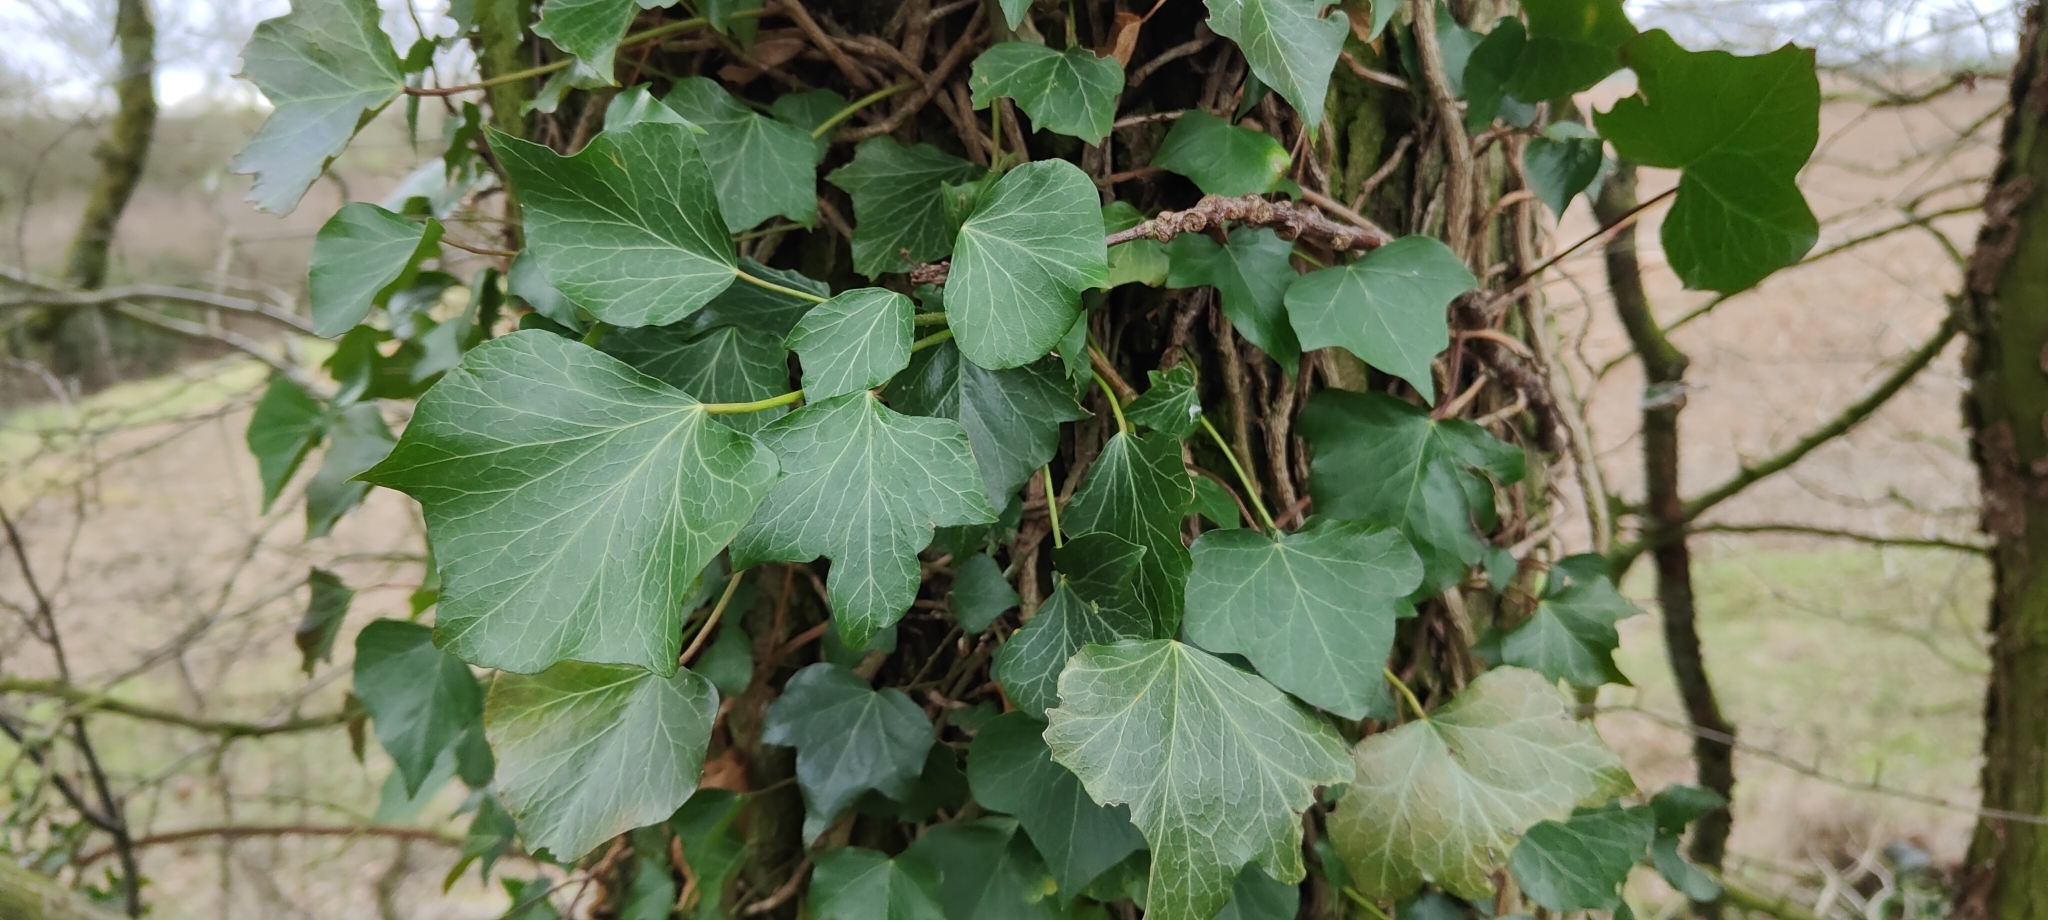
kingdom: Plantae
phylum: Tracheophyta
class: Magnoliopsida
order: Apiales
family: Araliaceae
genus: Hedera
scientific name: Hedera helix
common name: Ivy
